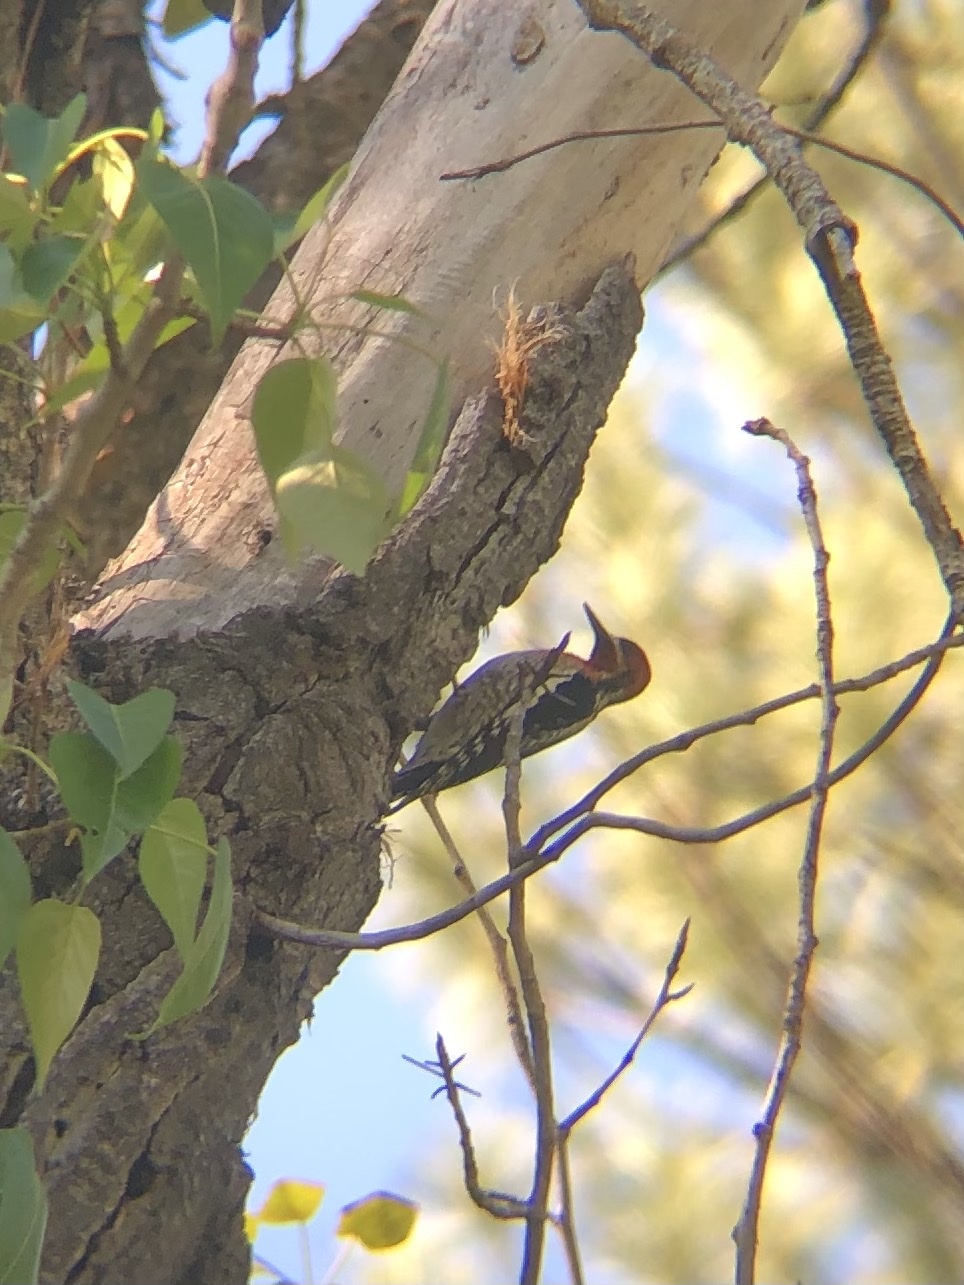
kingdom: Animalia
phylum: Chordata
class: Aves
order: Piciformes
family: Picidae
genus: Sphyrapicus
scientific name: Sphyrapicus ruber
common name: Red-breasted sapsucker
